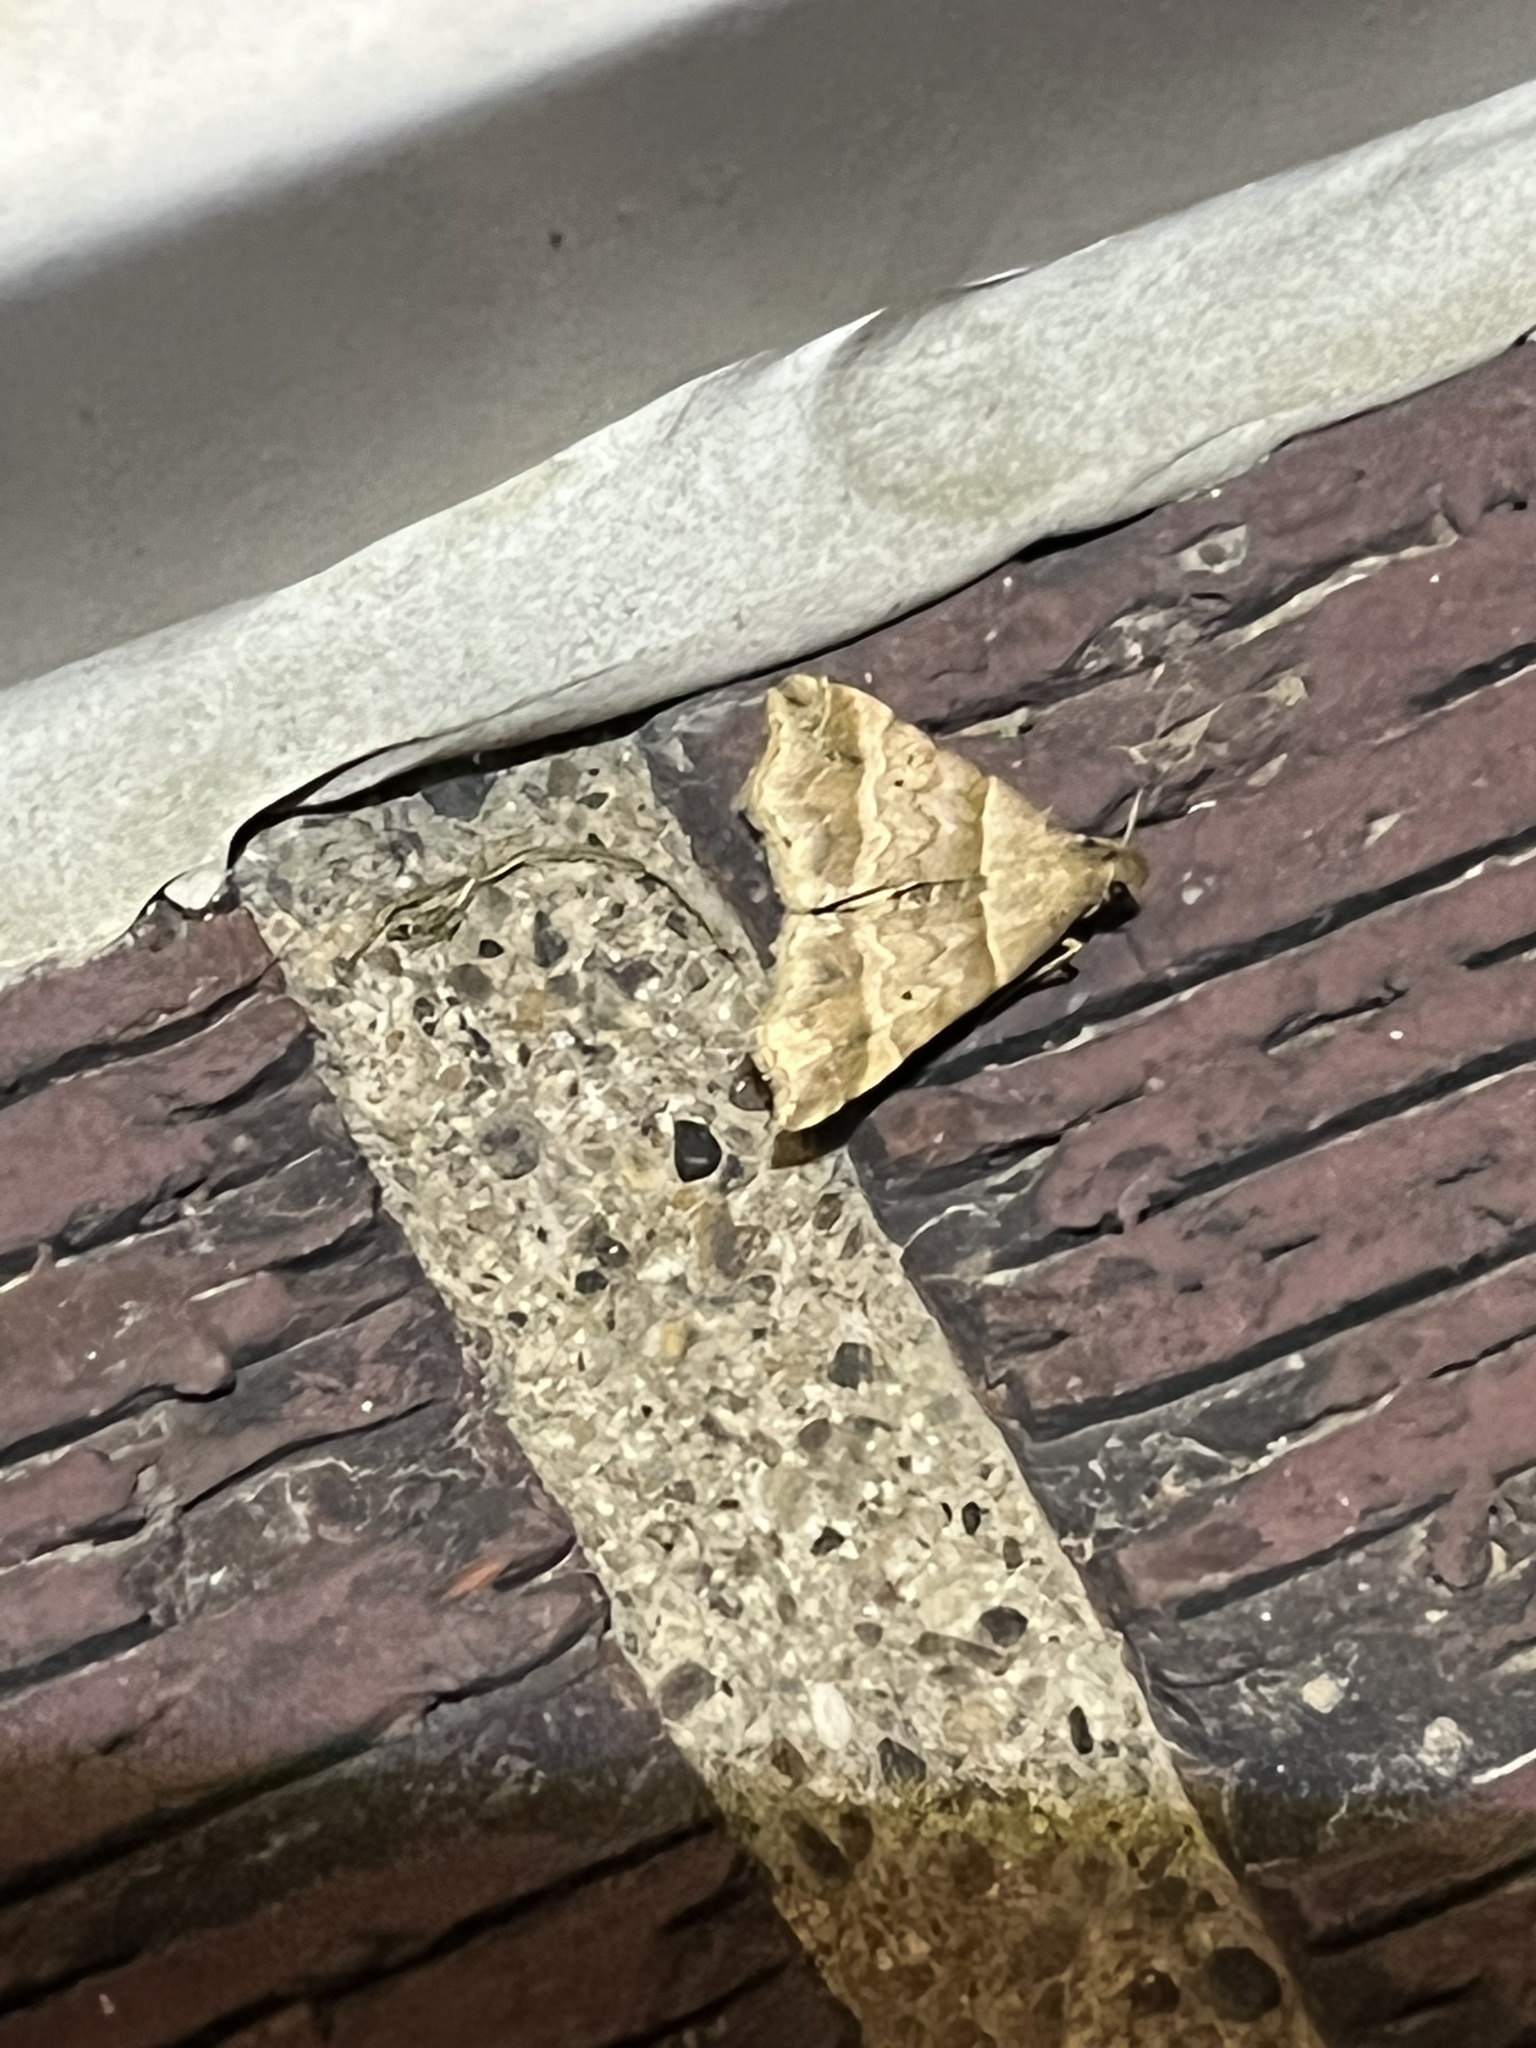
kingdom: Animalia
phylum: Arthropoda
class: Insecta
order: Lepidoptera
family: Erebidae
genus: Phaeolita
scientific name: Phaeolita pyramusalis
